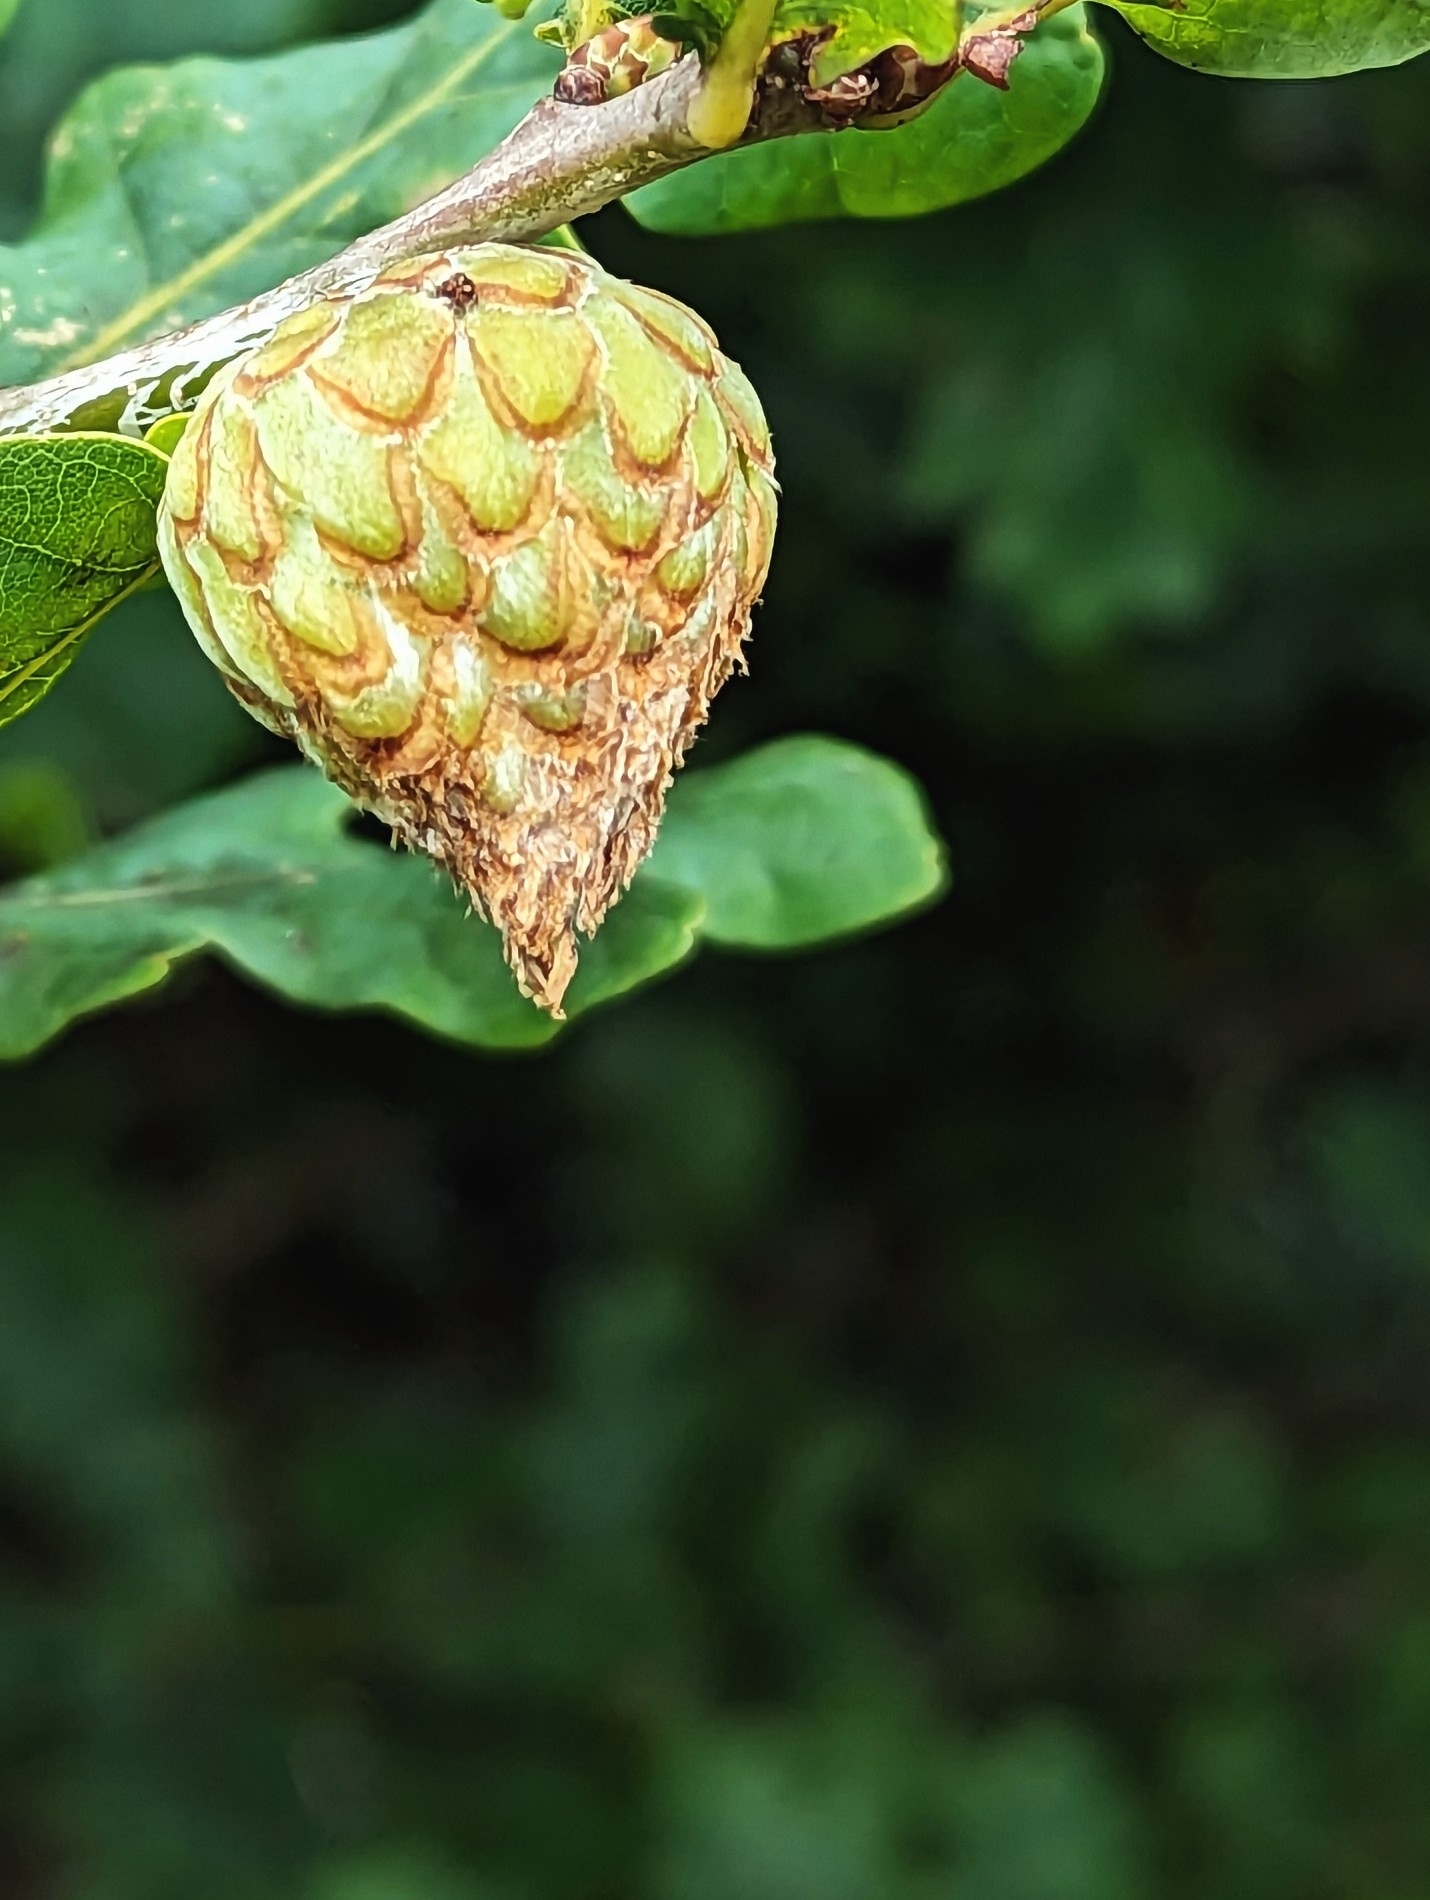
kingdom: Animalia
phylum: Arthropoda
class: Insecta
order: Hymenoptera
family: Cynipidae
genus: Andricus
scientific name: Andricus foecundatrix
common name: Artichoke gall
